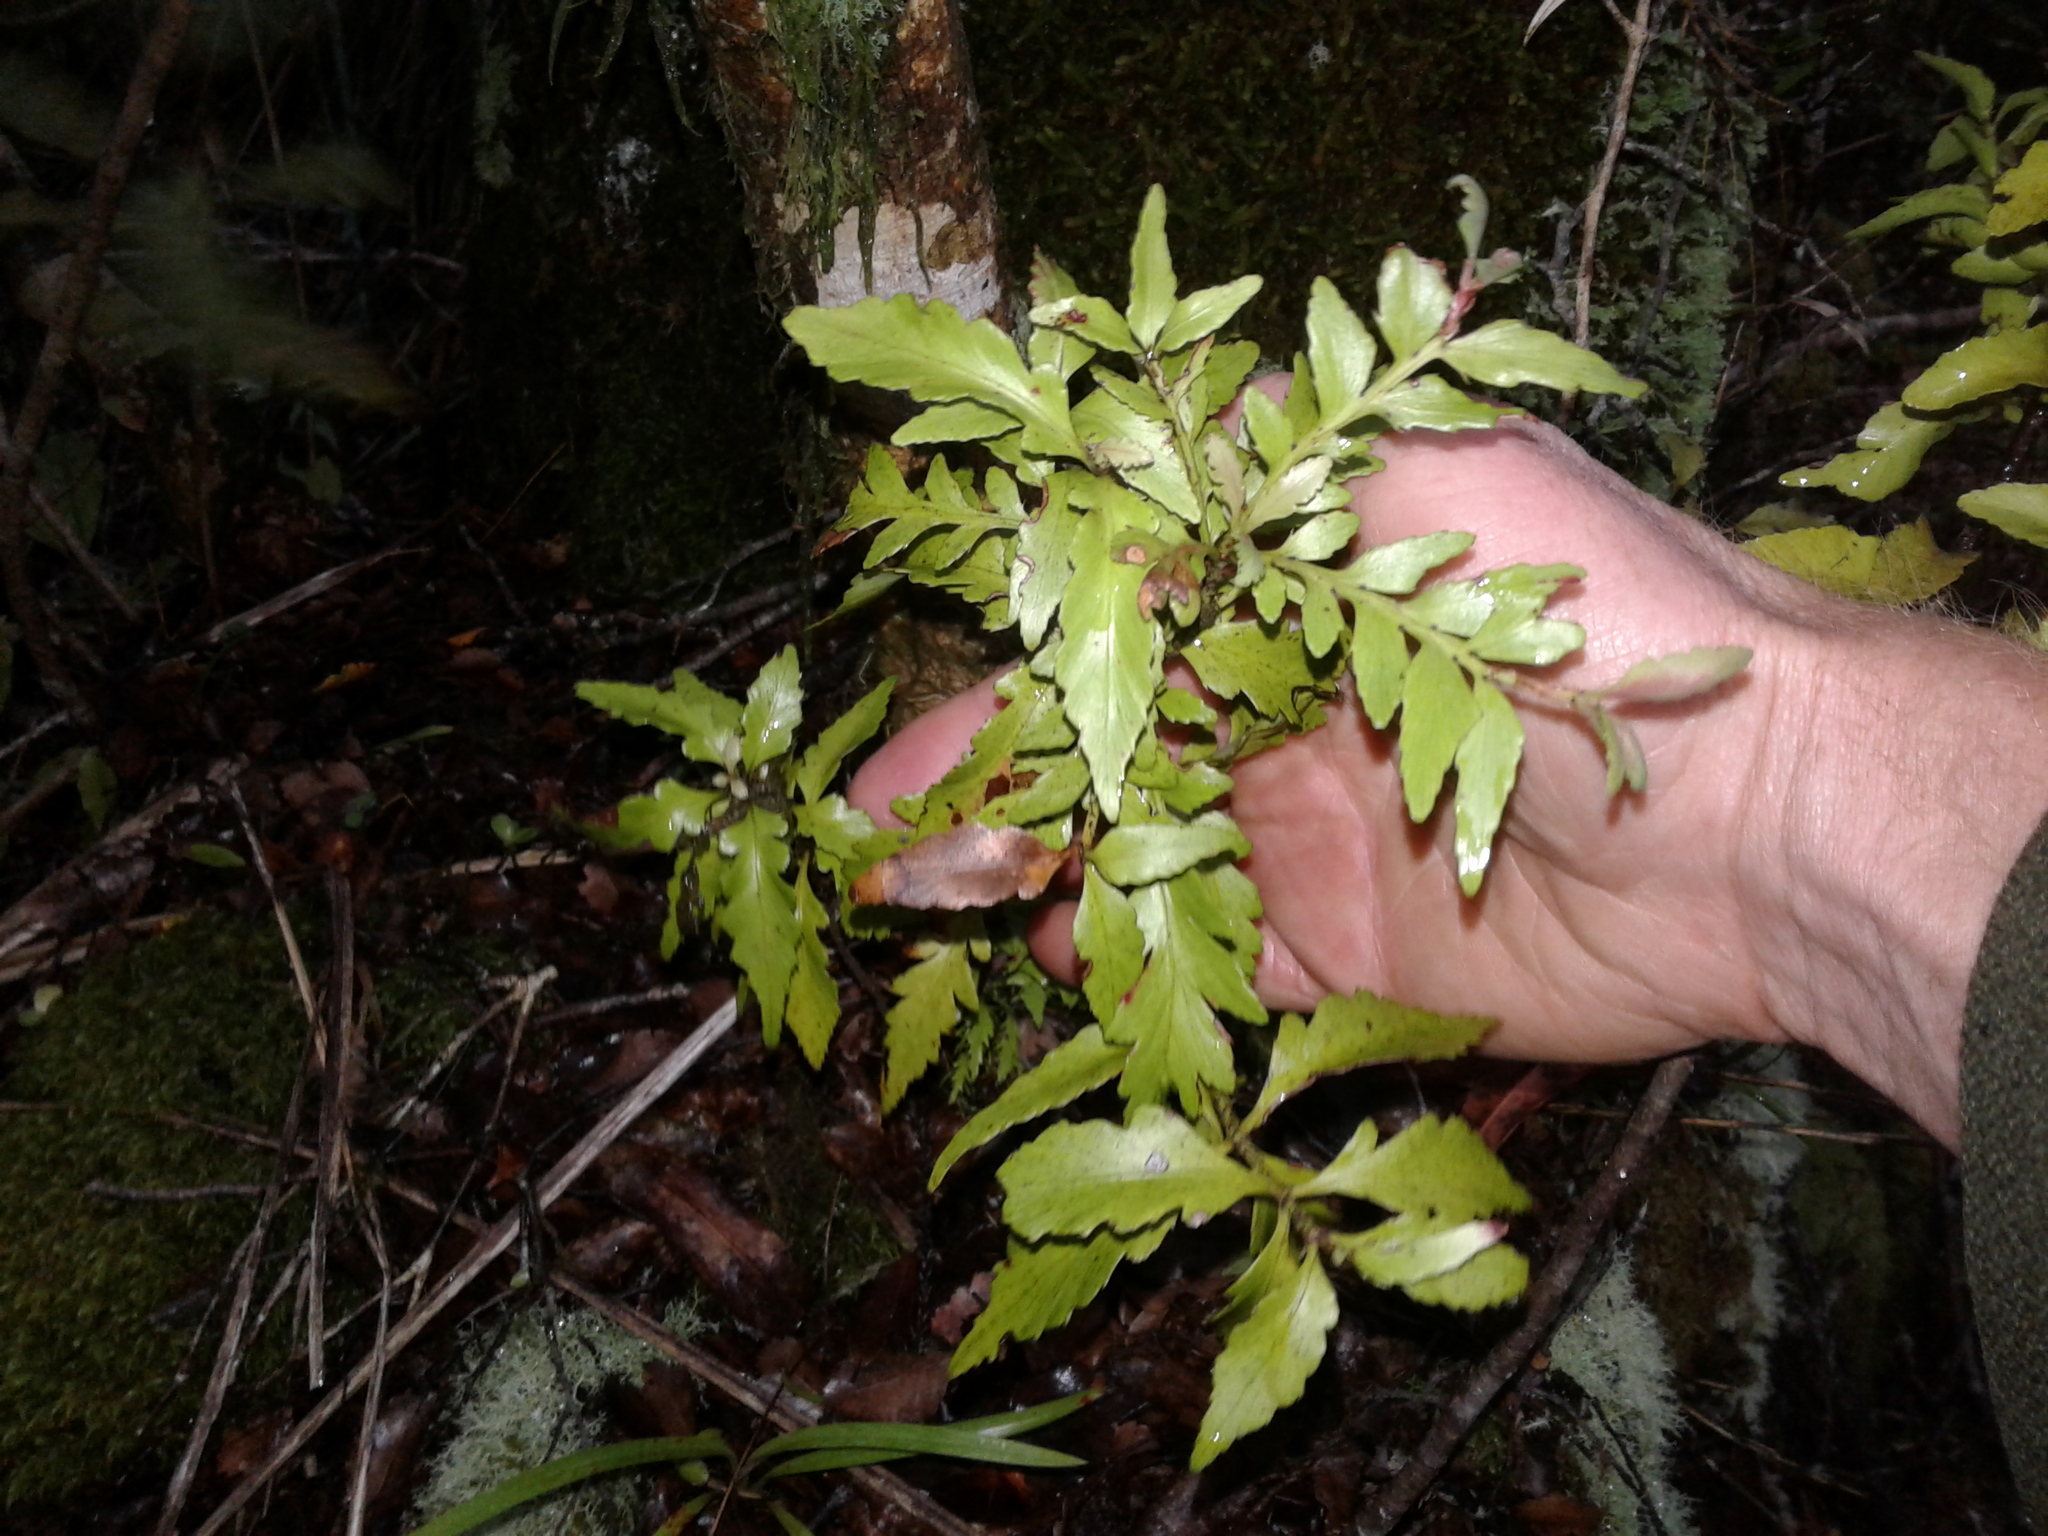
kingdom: Plantae
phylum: Tracheophyta
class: Pinopsida
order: Pinales
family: Phyllocladaceae
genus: Phyllocladus
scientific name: Phyllocladus trichomanoides
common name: Celery pine
